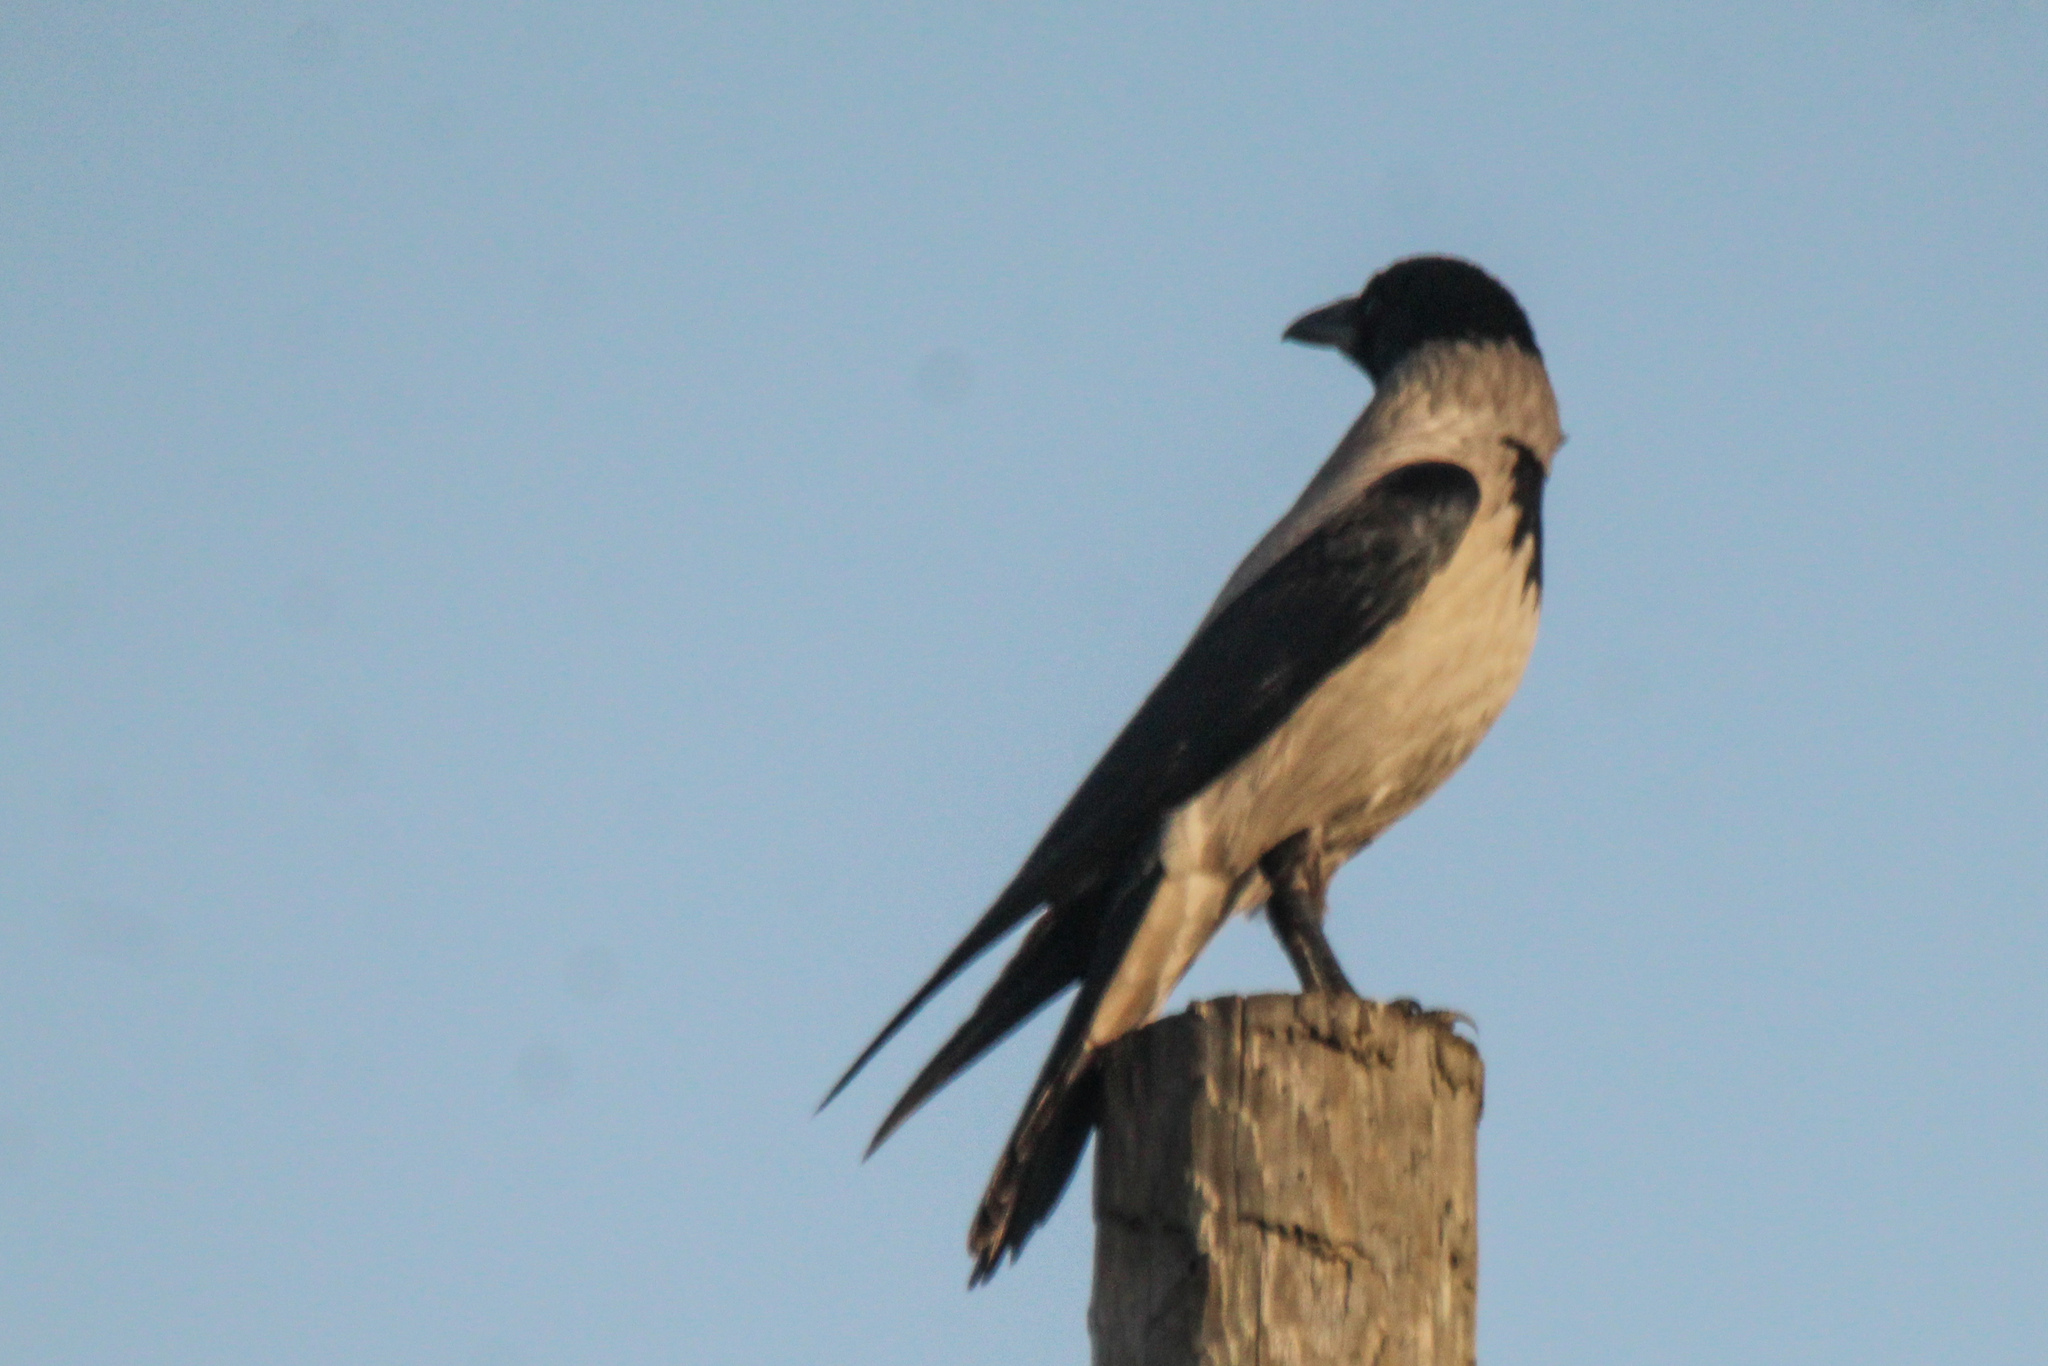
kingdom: Animalia
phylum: Chordata
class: Aves
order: Passeriformes
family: Corvidae
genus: Corvus
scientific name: Corvus cornix
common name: Hooded crow
